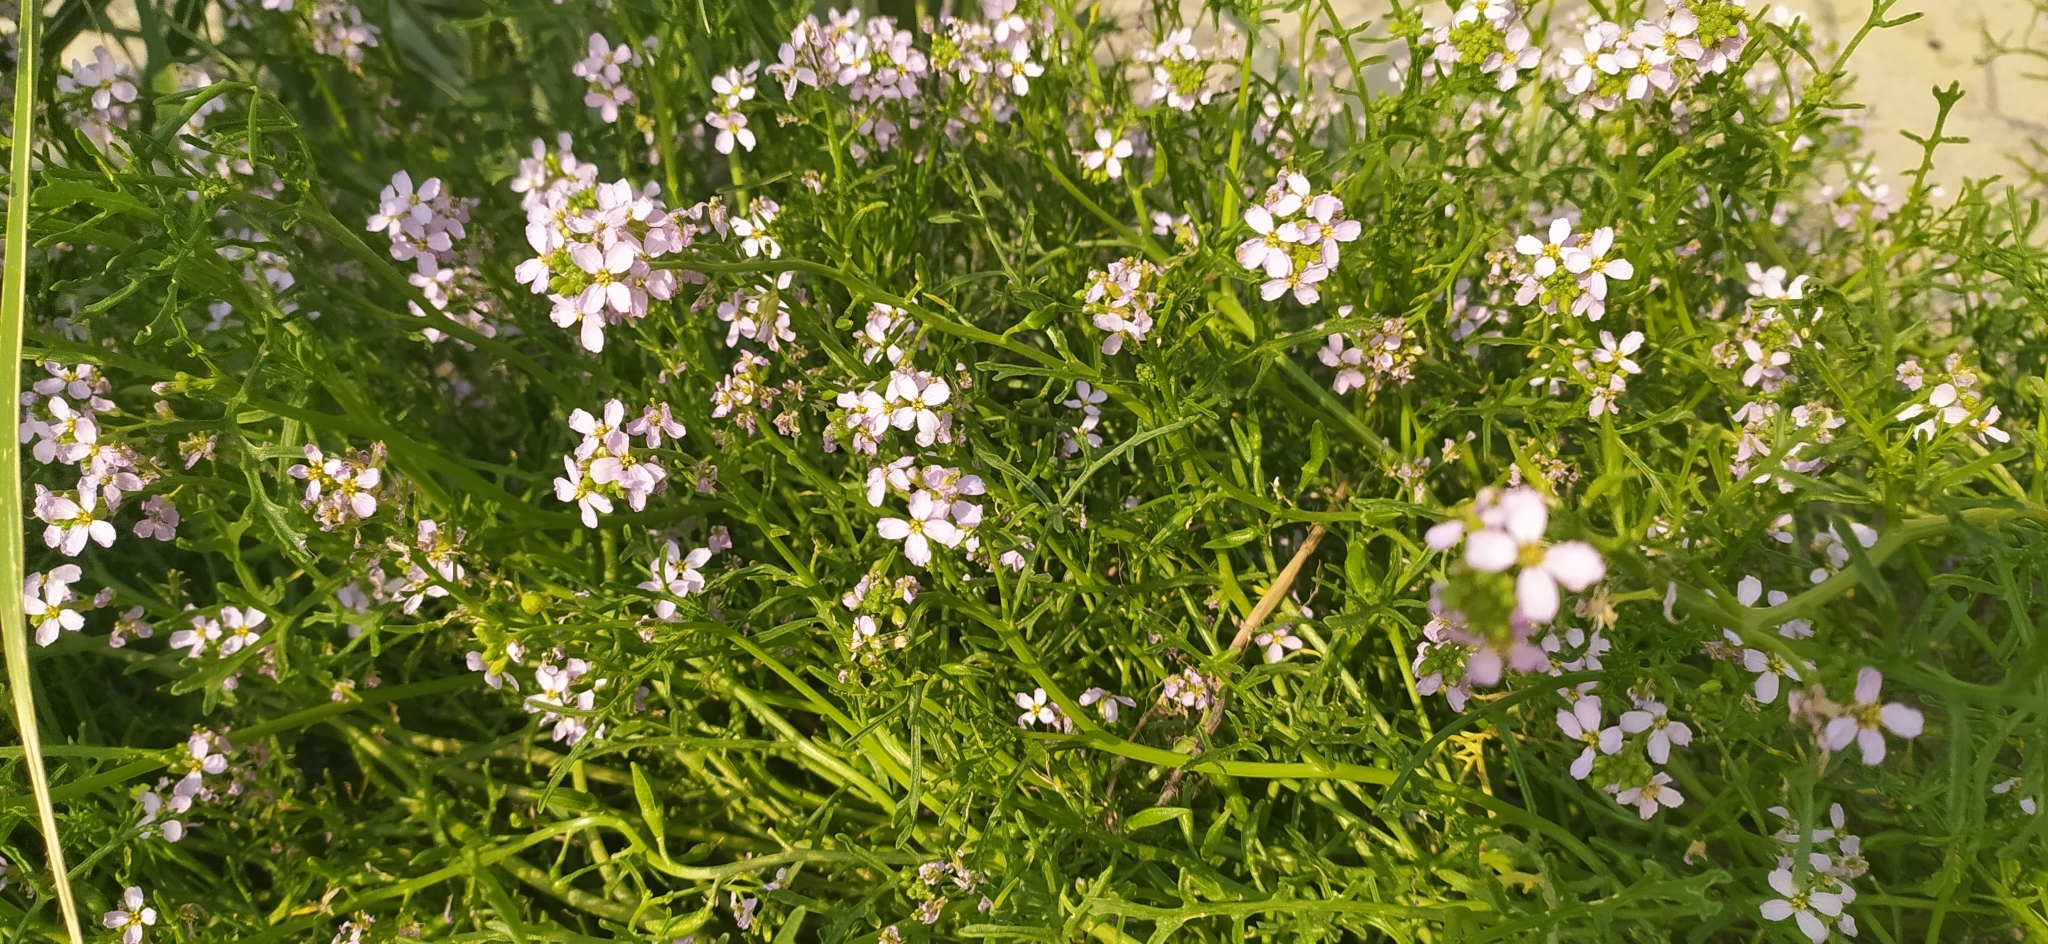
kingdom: Plantae
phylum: Tracheophyta
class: Magnoliopsida
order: Brassicales
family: Brassicaceae
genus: Cakile
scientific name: Cakile maritima
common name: Sea rocket
